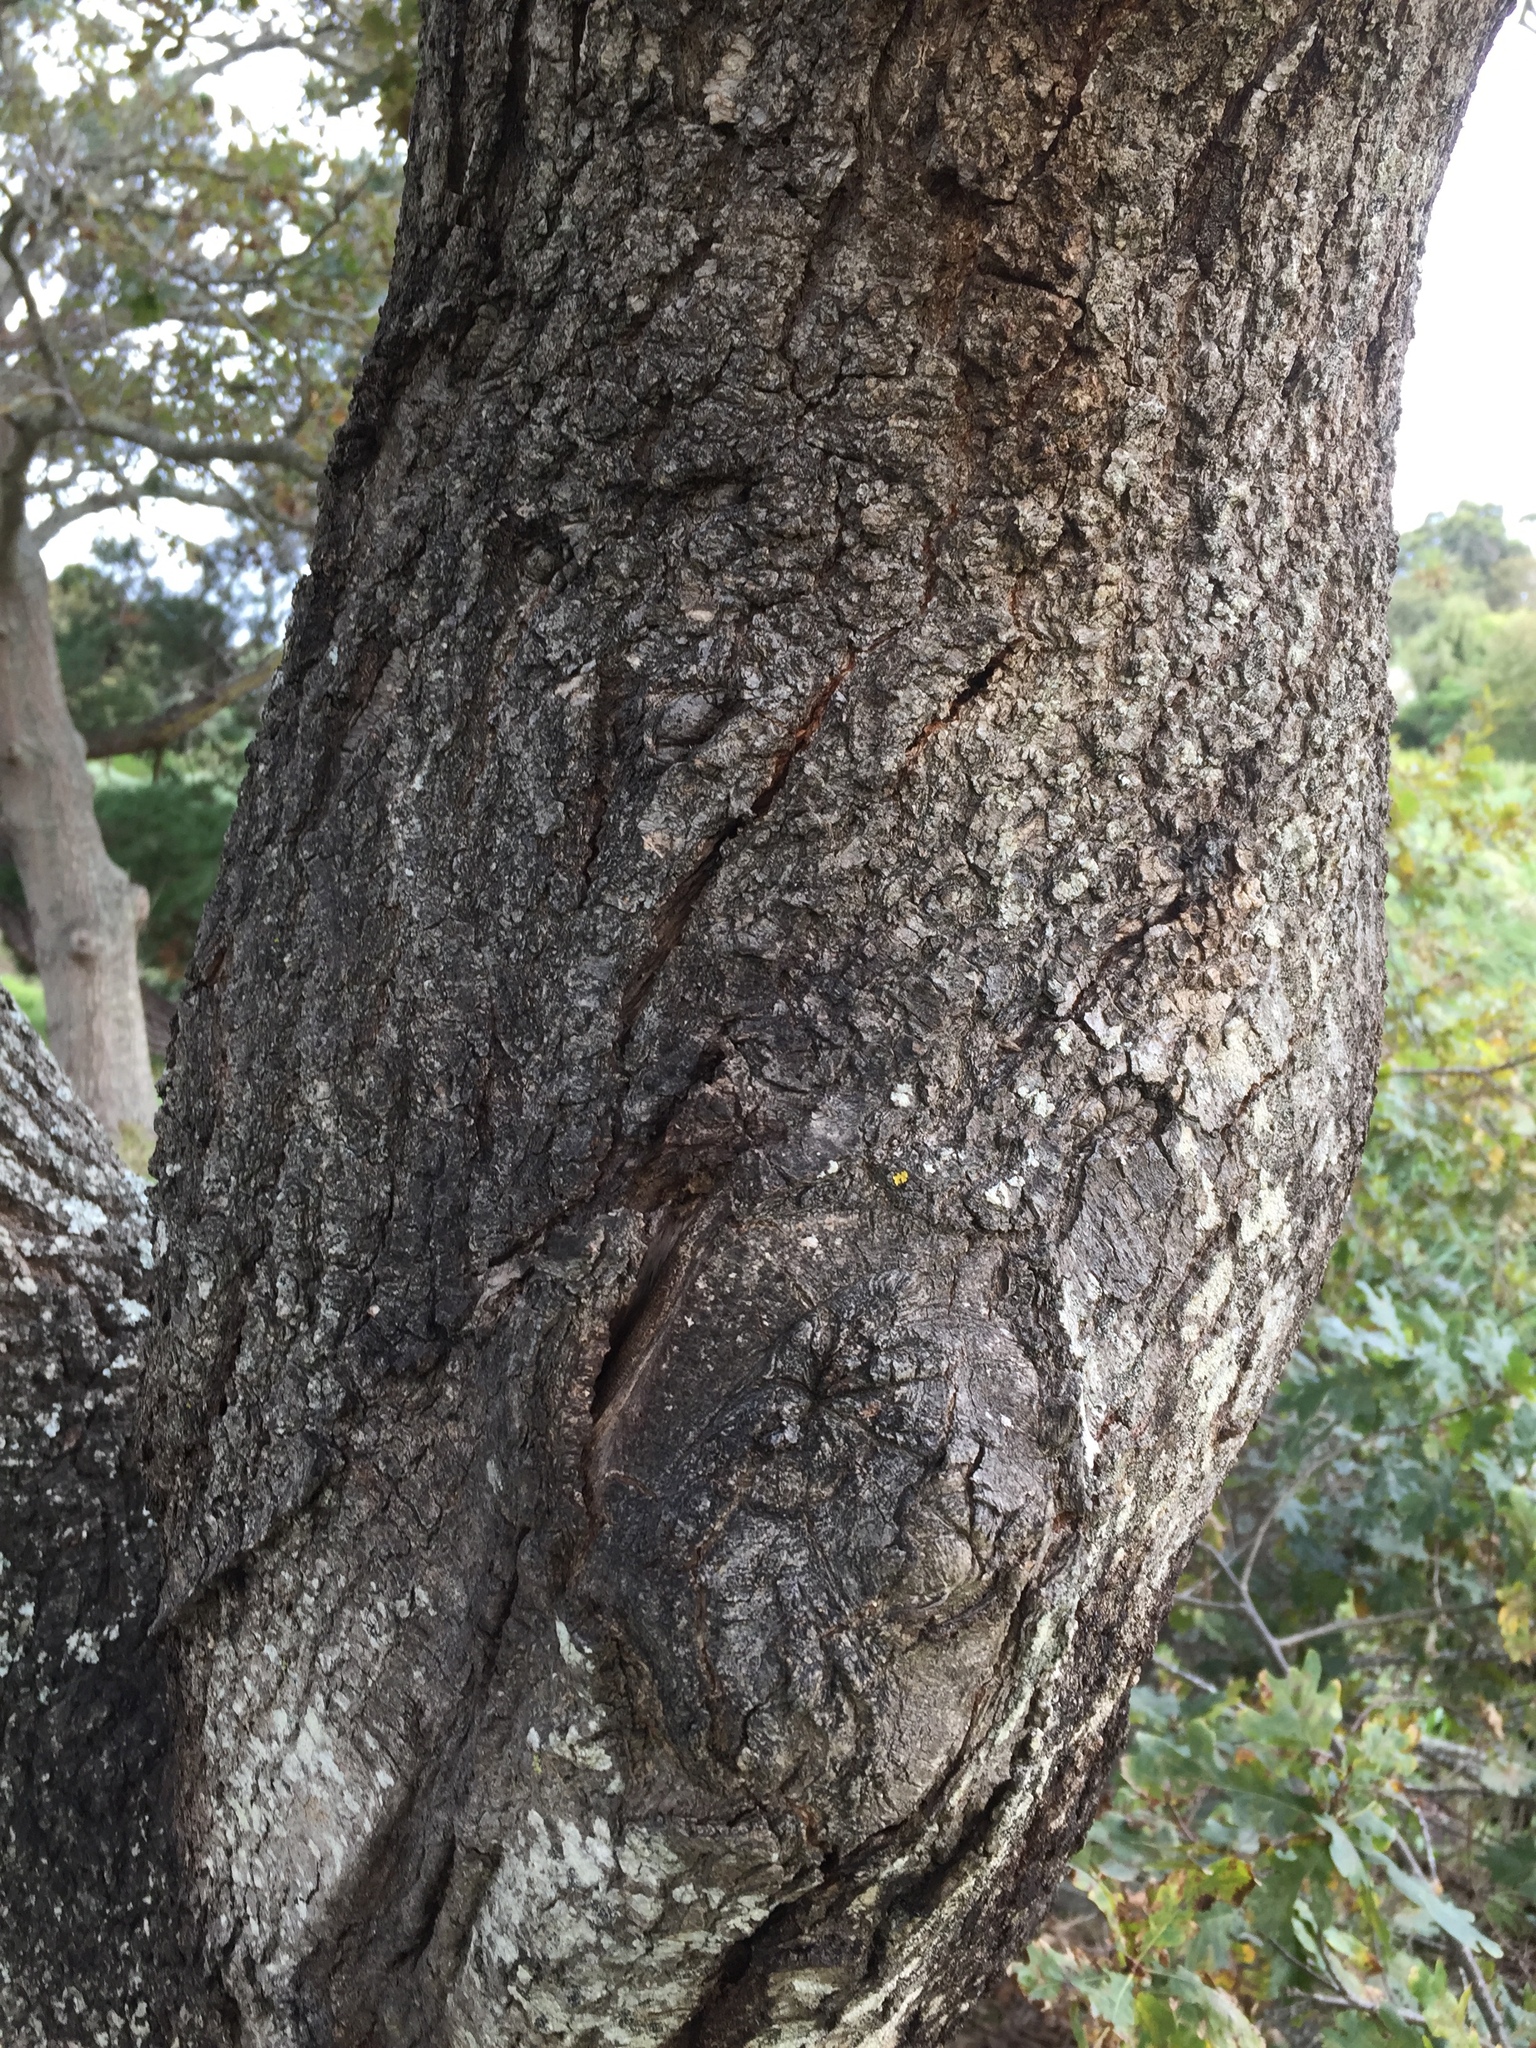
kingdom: Plantae
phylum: Tracheophyta
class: Magnoliopsida
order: Fagales
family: Fagaceae
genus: Quercus
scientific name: Quercus robur
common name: Pedunculate oak
